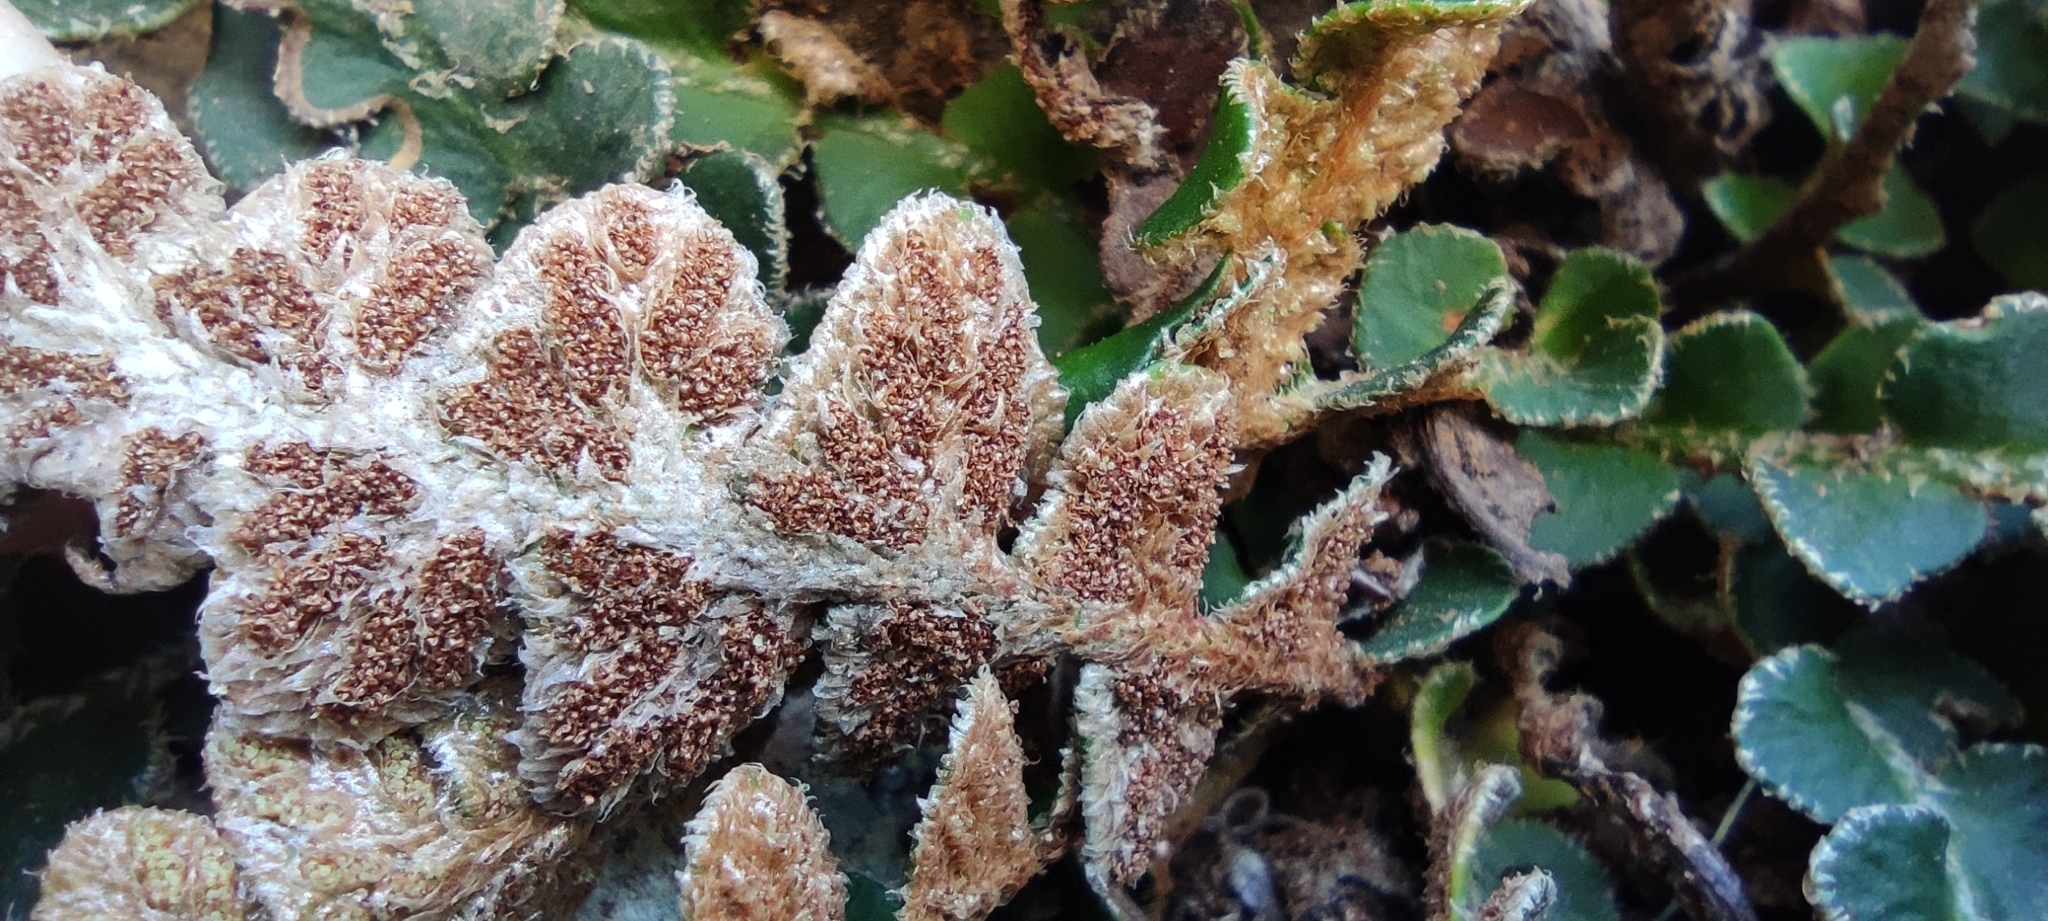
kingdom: Plantae
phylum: Tracheophyta
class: Polypodiopsida
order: Polypodiales
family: Aspleniaceae
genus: Asplenium
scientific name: Asplenium ceterach
